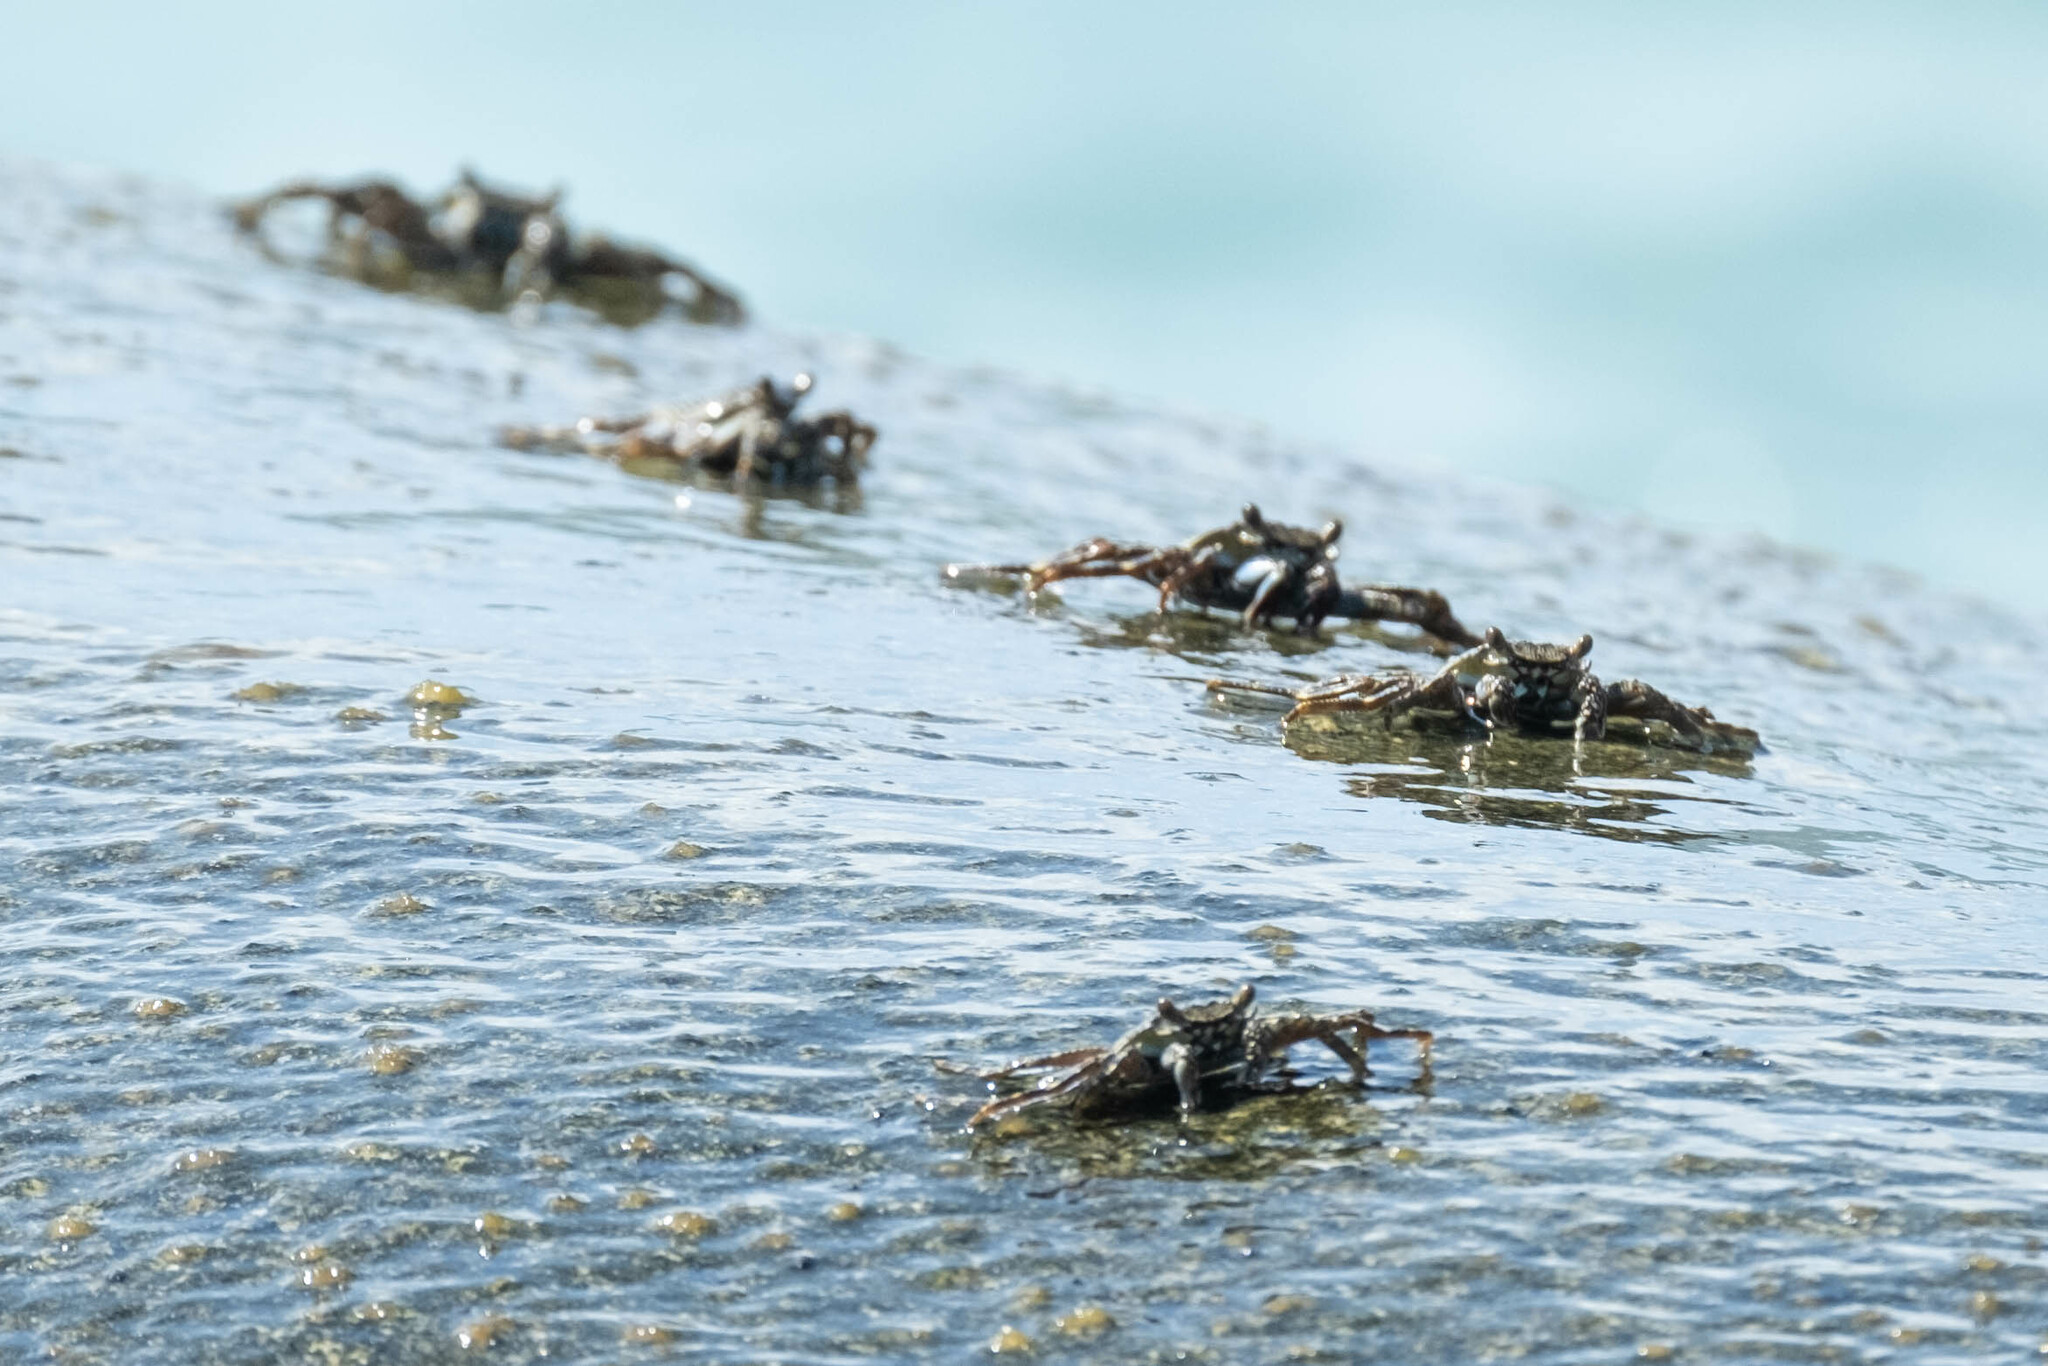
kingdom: Animalia
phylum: Arthropoda
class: Malacostraca
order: Decapoda
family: Grapsidae
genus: Grapsus
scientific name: Grapsus grapsus
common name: Sally lightfoot
